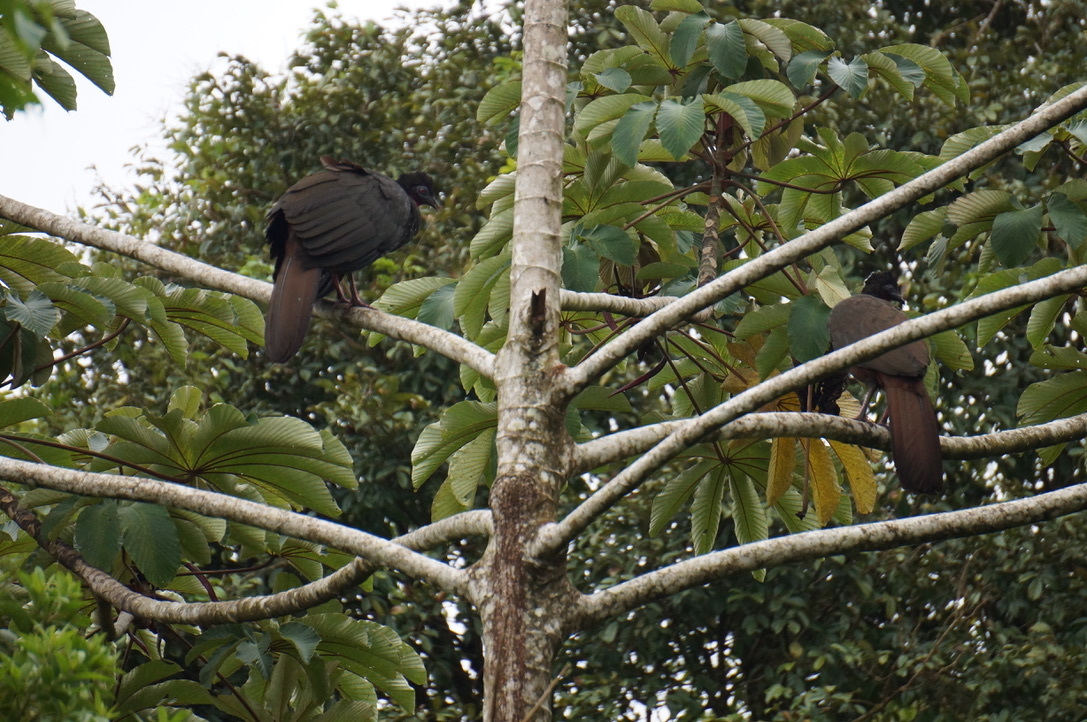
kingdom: Animalia
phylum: Chordata
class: Aves
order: Galliformes
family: Cracidae
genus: Penelope
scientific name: Penelope purpurascens
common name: Crested guan
